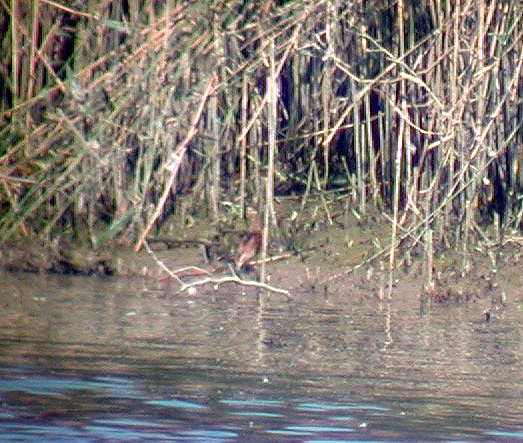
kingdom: Animalia
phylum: Chordata
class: Aves
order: Gruiformes
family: Rallidae
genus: Porzana
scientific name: Porzana parva
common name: Little crake
